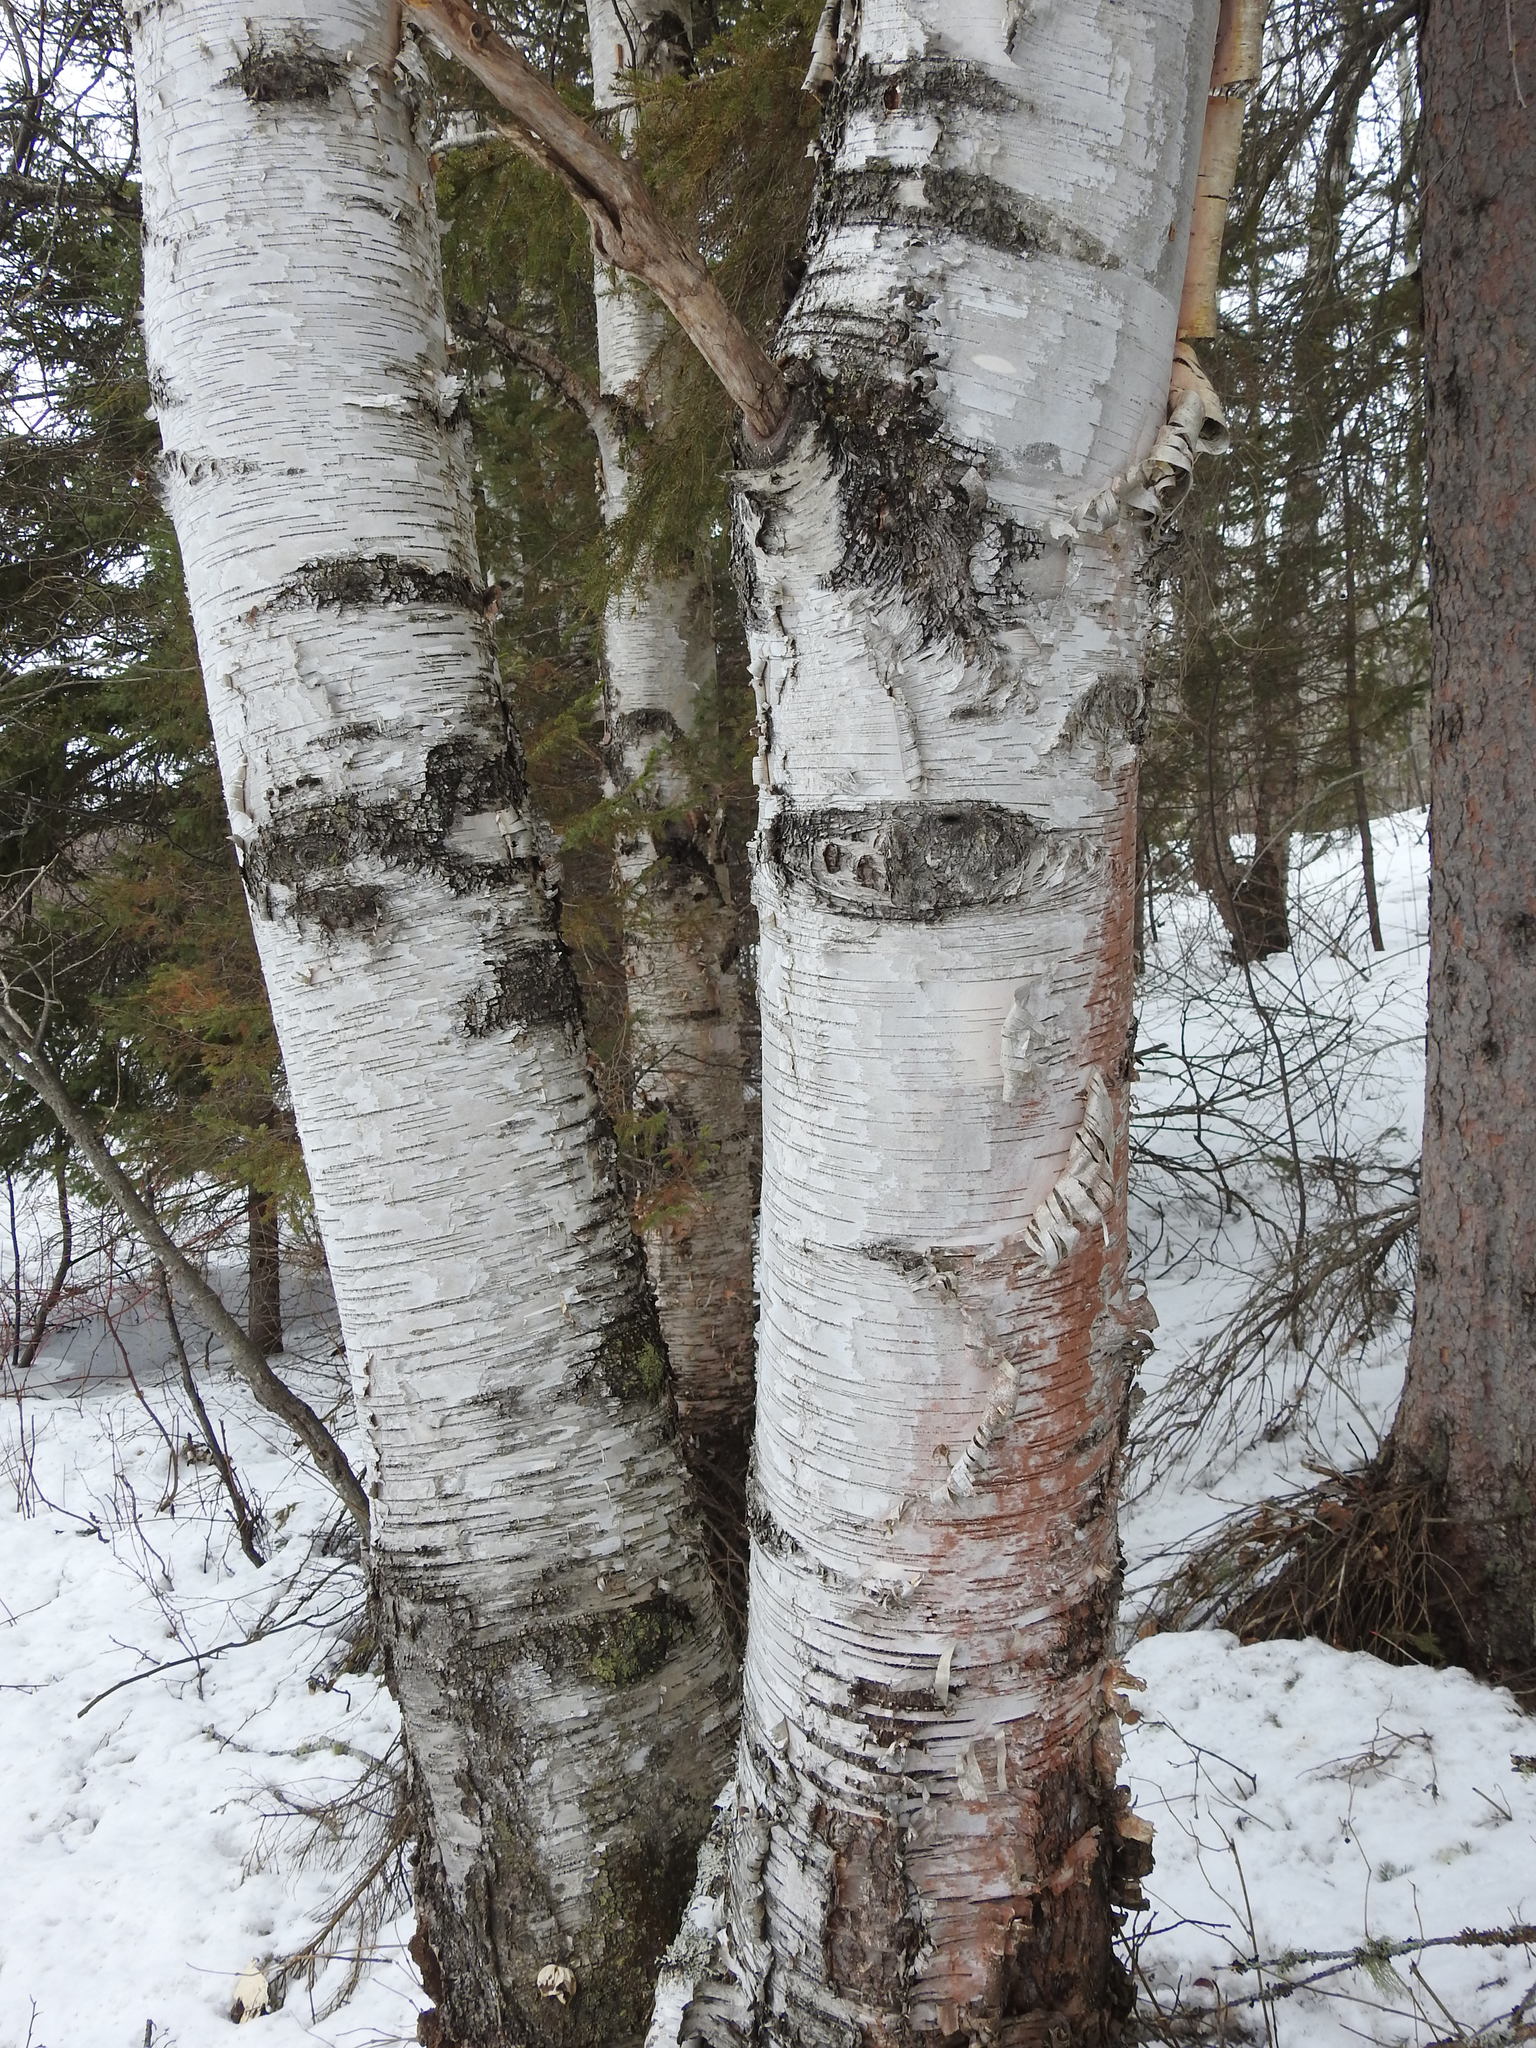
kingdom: Plantae
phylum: Tracheophyta
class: Magnoliopsida
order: Fagales
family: Betulaceae
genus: Betula
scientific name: Betula papyrifera
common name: Paper birch
